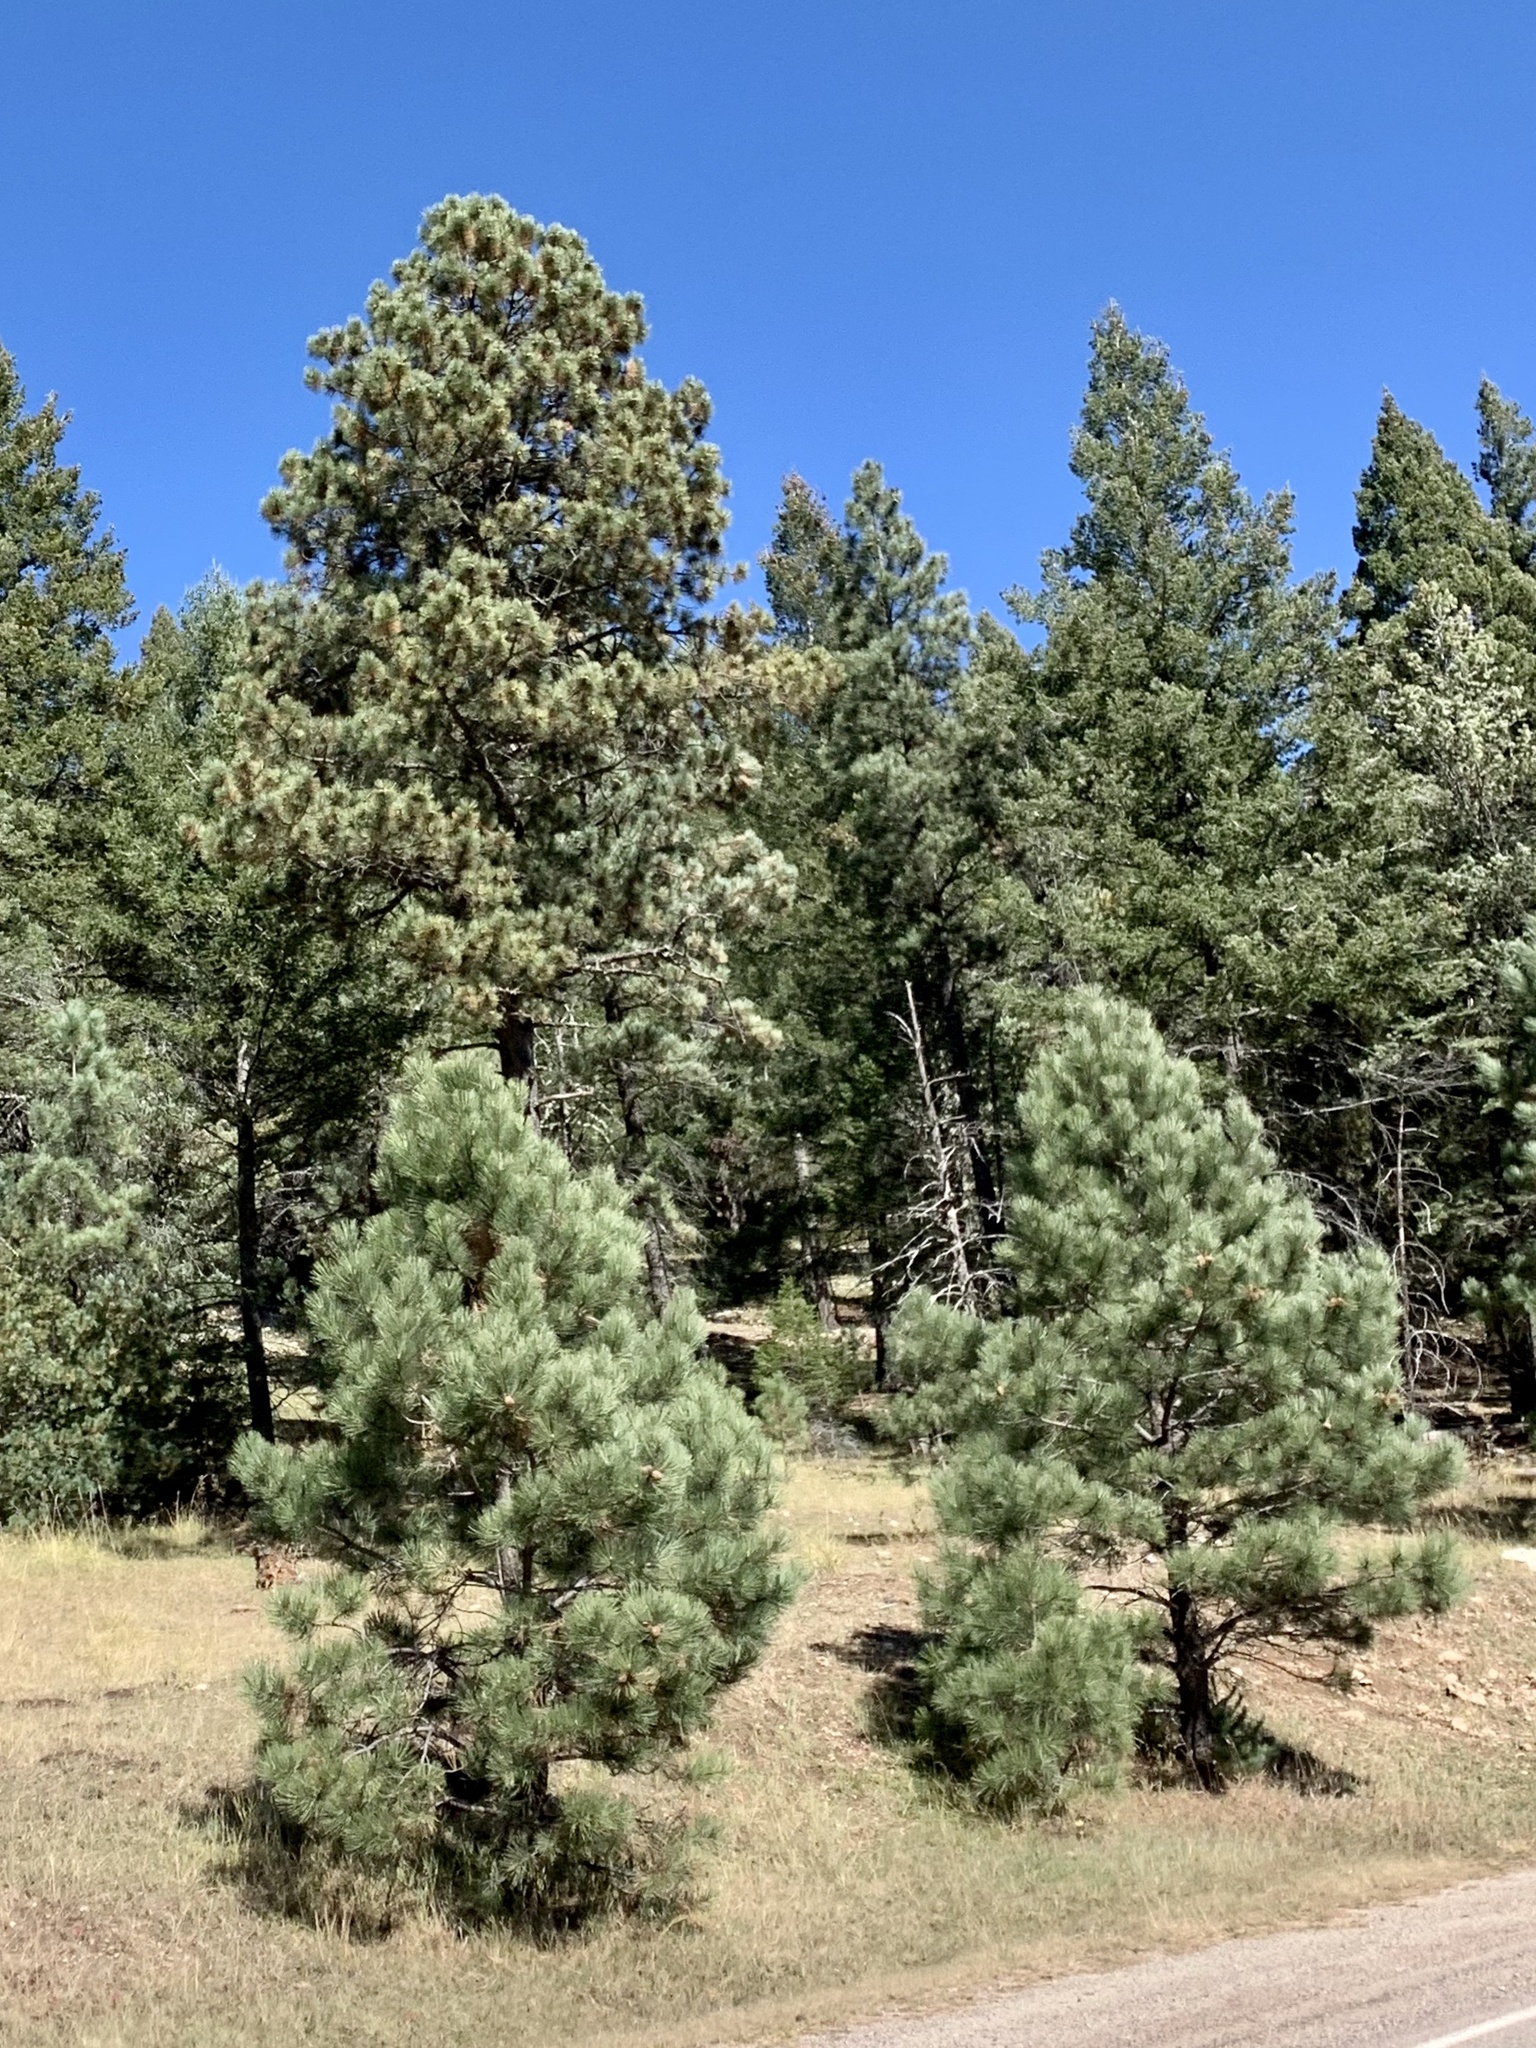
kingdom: Plantae
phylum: Tracheophyta
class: Pinopsida
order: Pinales
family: Pinaceae
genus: Pinus
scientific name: Pinus ponderosa
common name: Western yellow-pine
